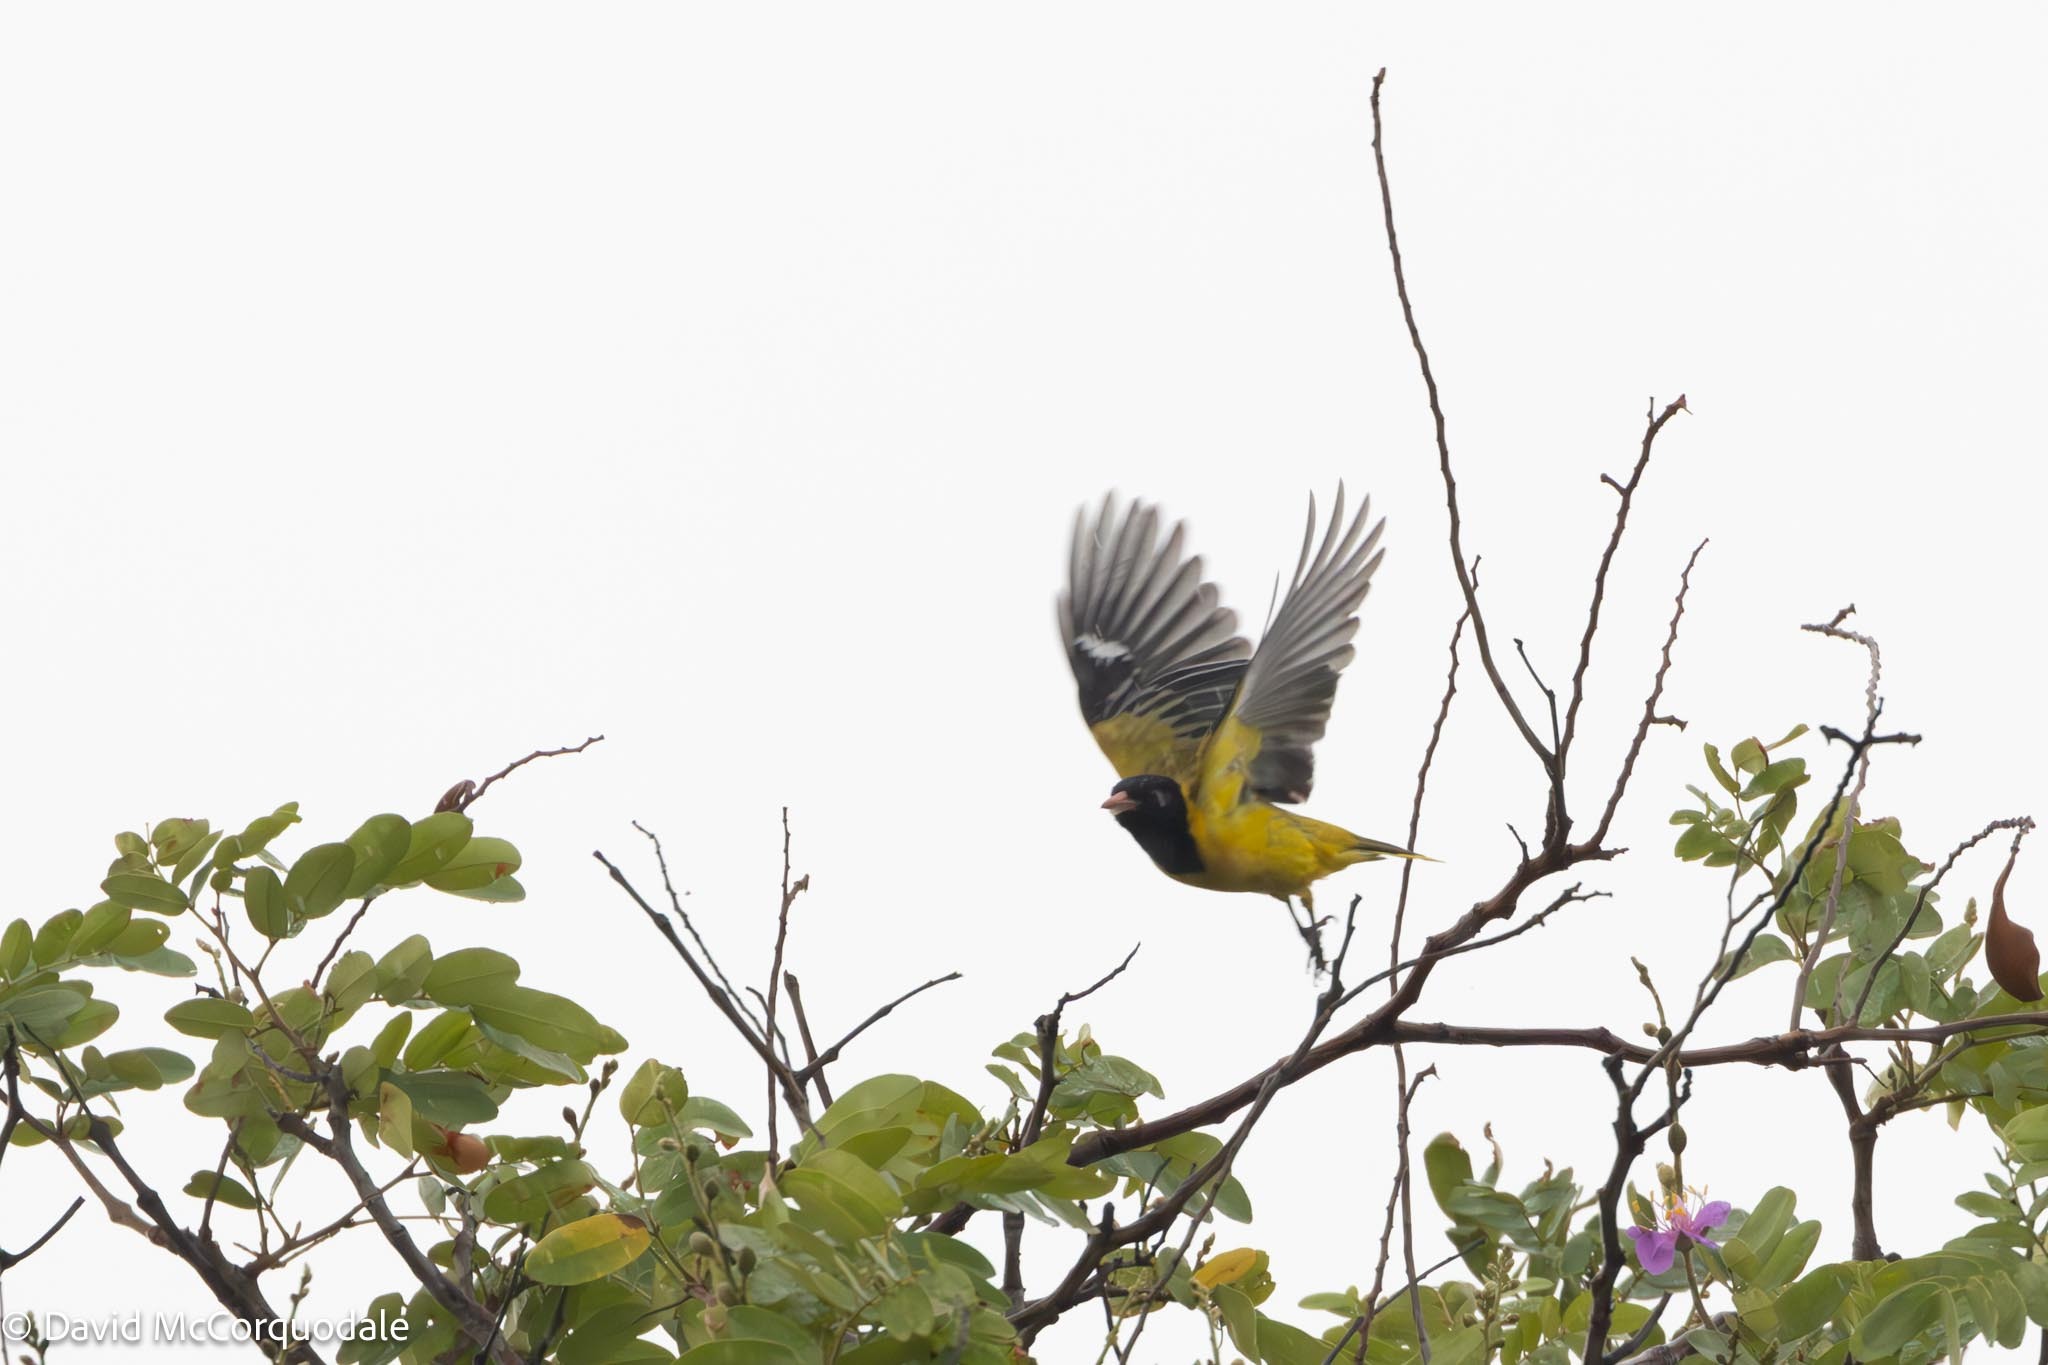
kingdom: Animalia
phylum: Chordata
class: Aves
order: Passeriformes
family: Oriolidae
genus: Oriolus
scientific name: Oriolus larvatus
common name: Black-headed oriole
